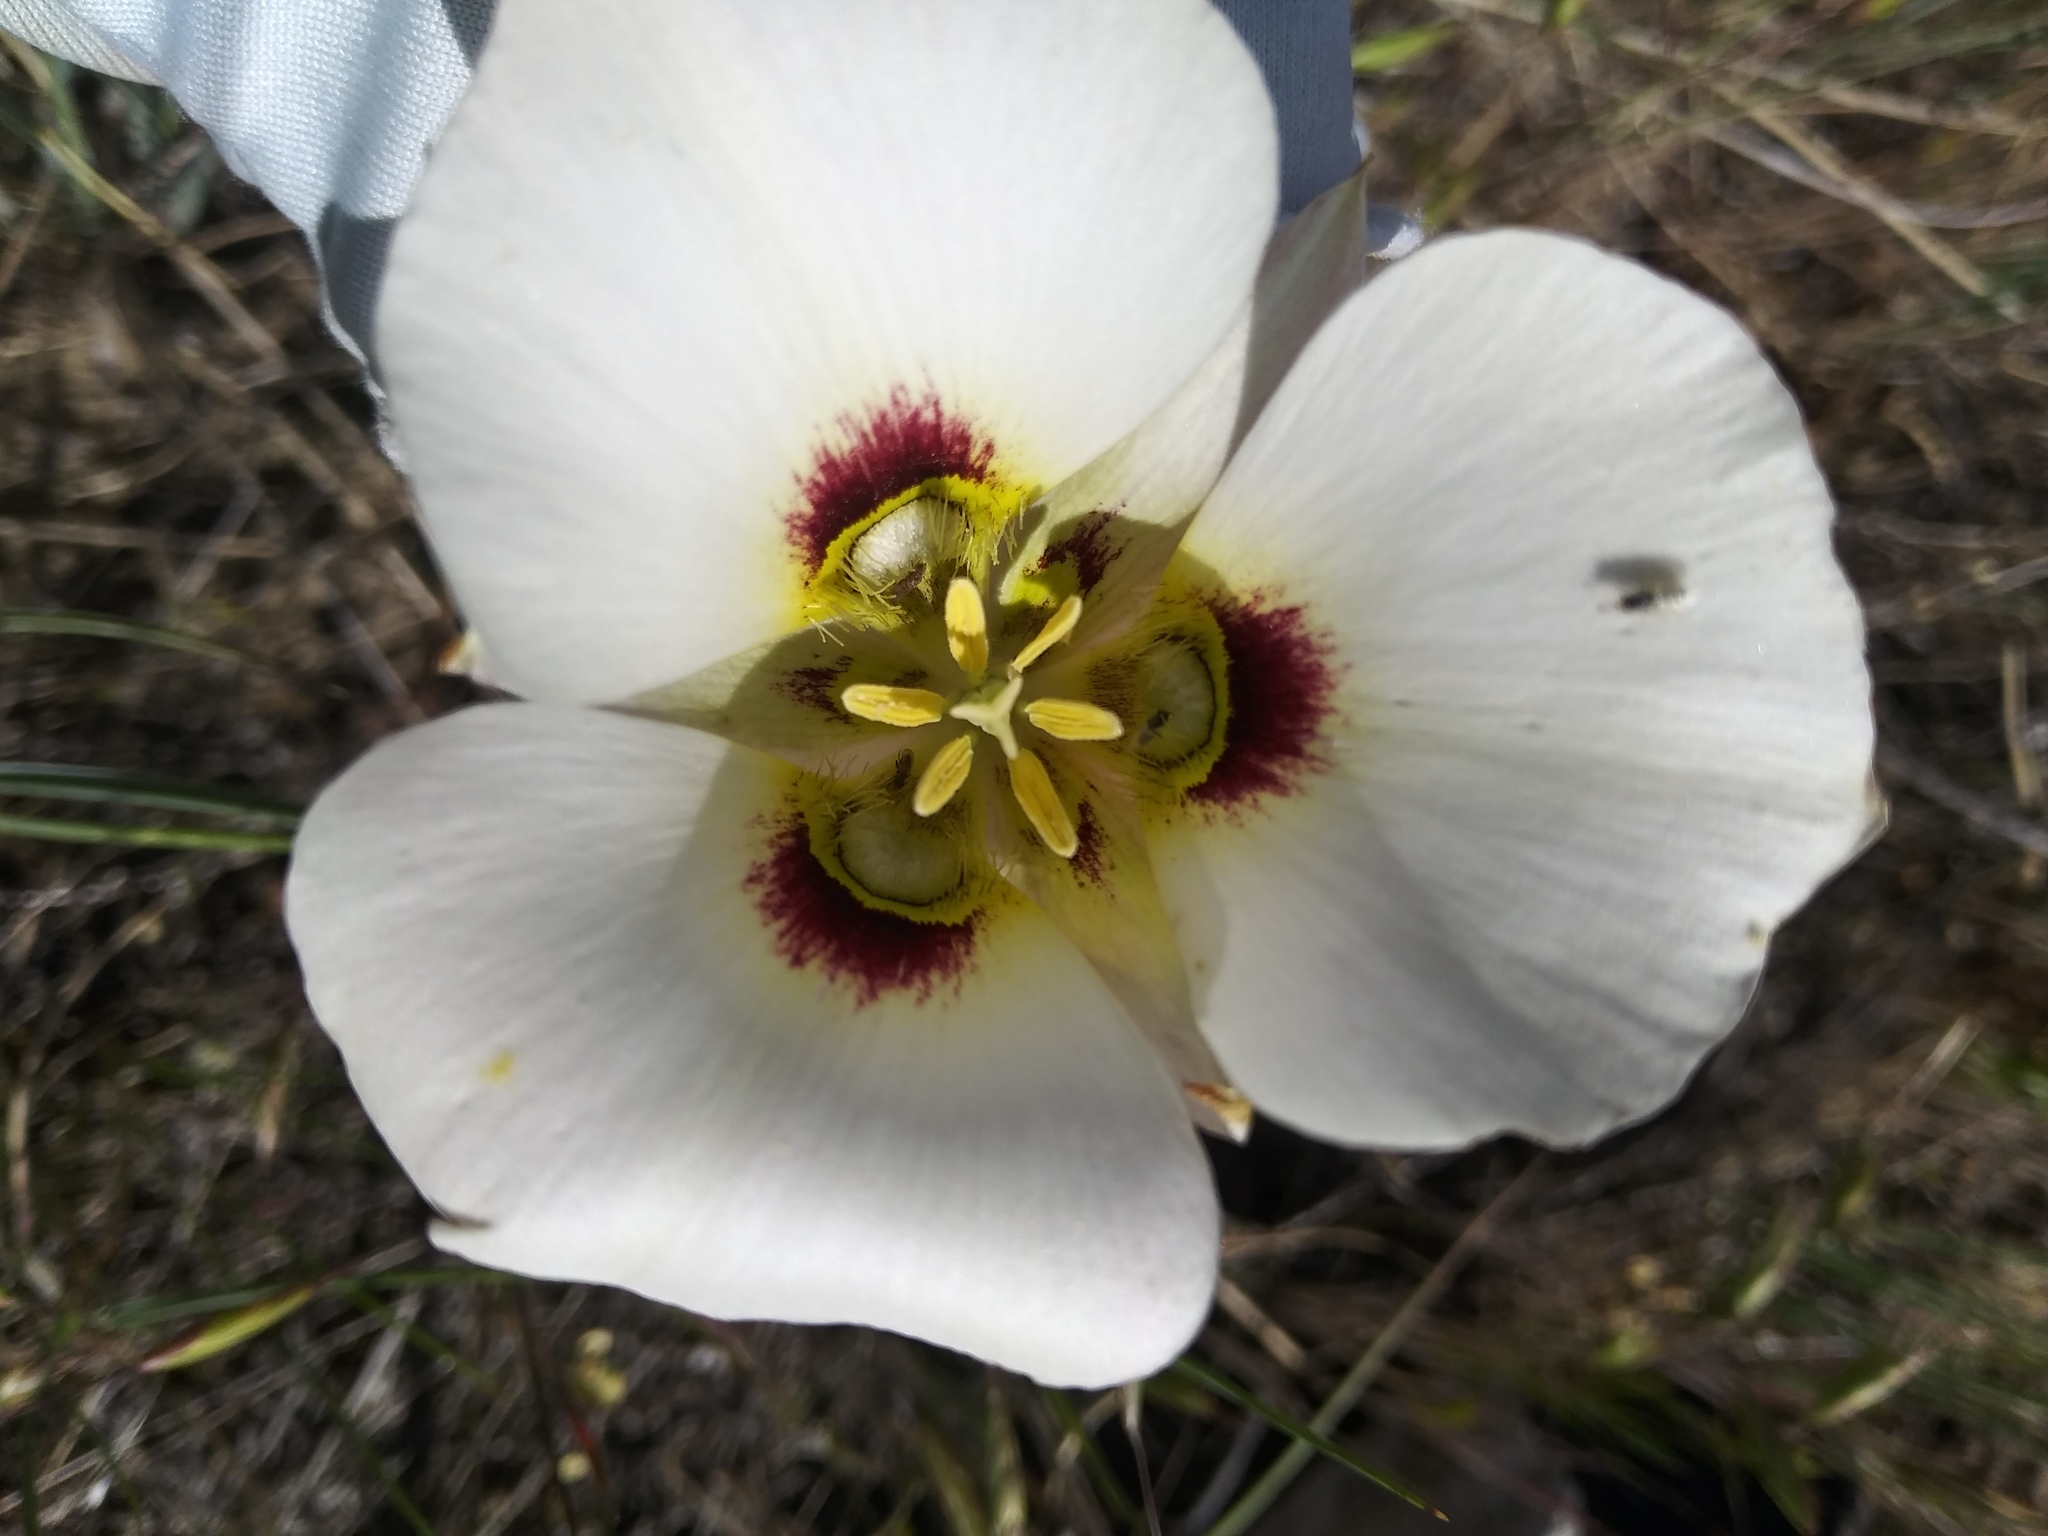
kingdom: Plantae
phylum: Tracheophyta
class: Liliopsida
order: Liliales
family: Liliaceae
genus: Calochortus
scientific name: Calochortus nuttallii
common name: Sego-lily
